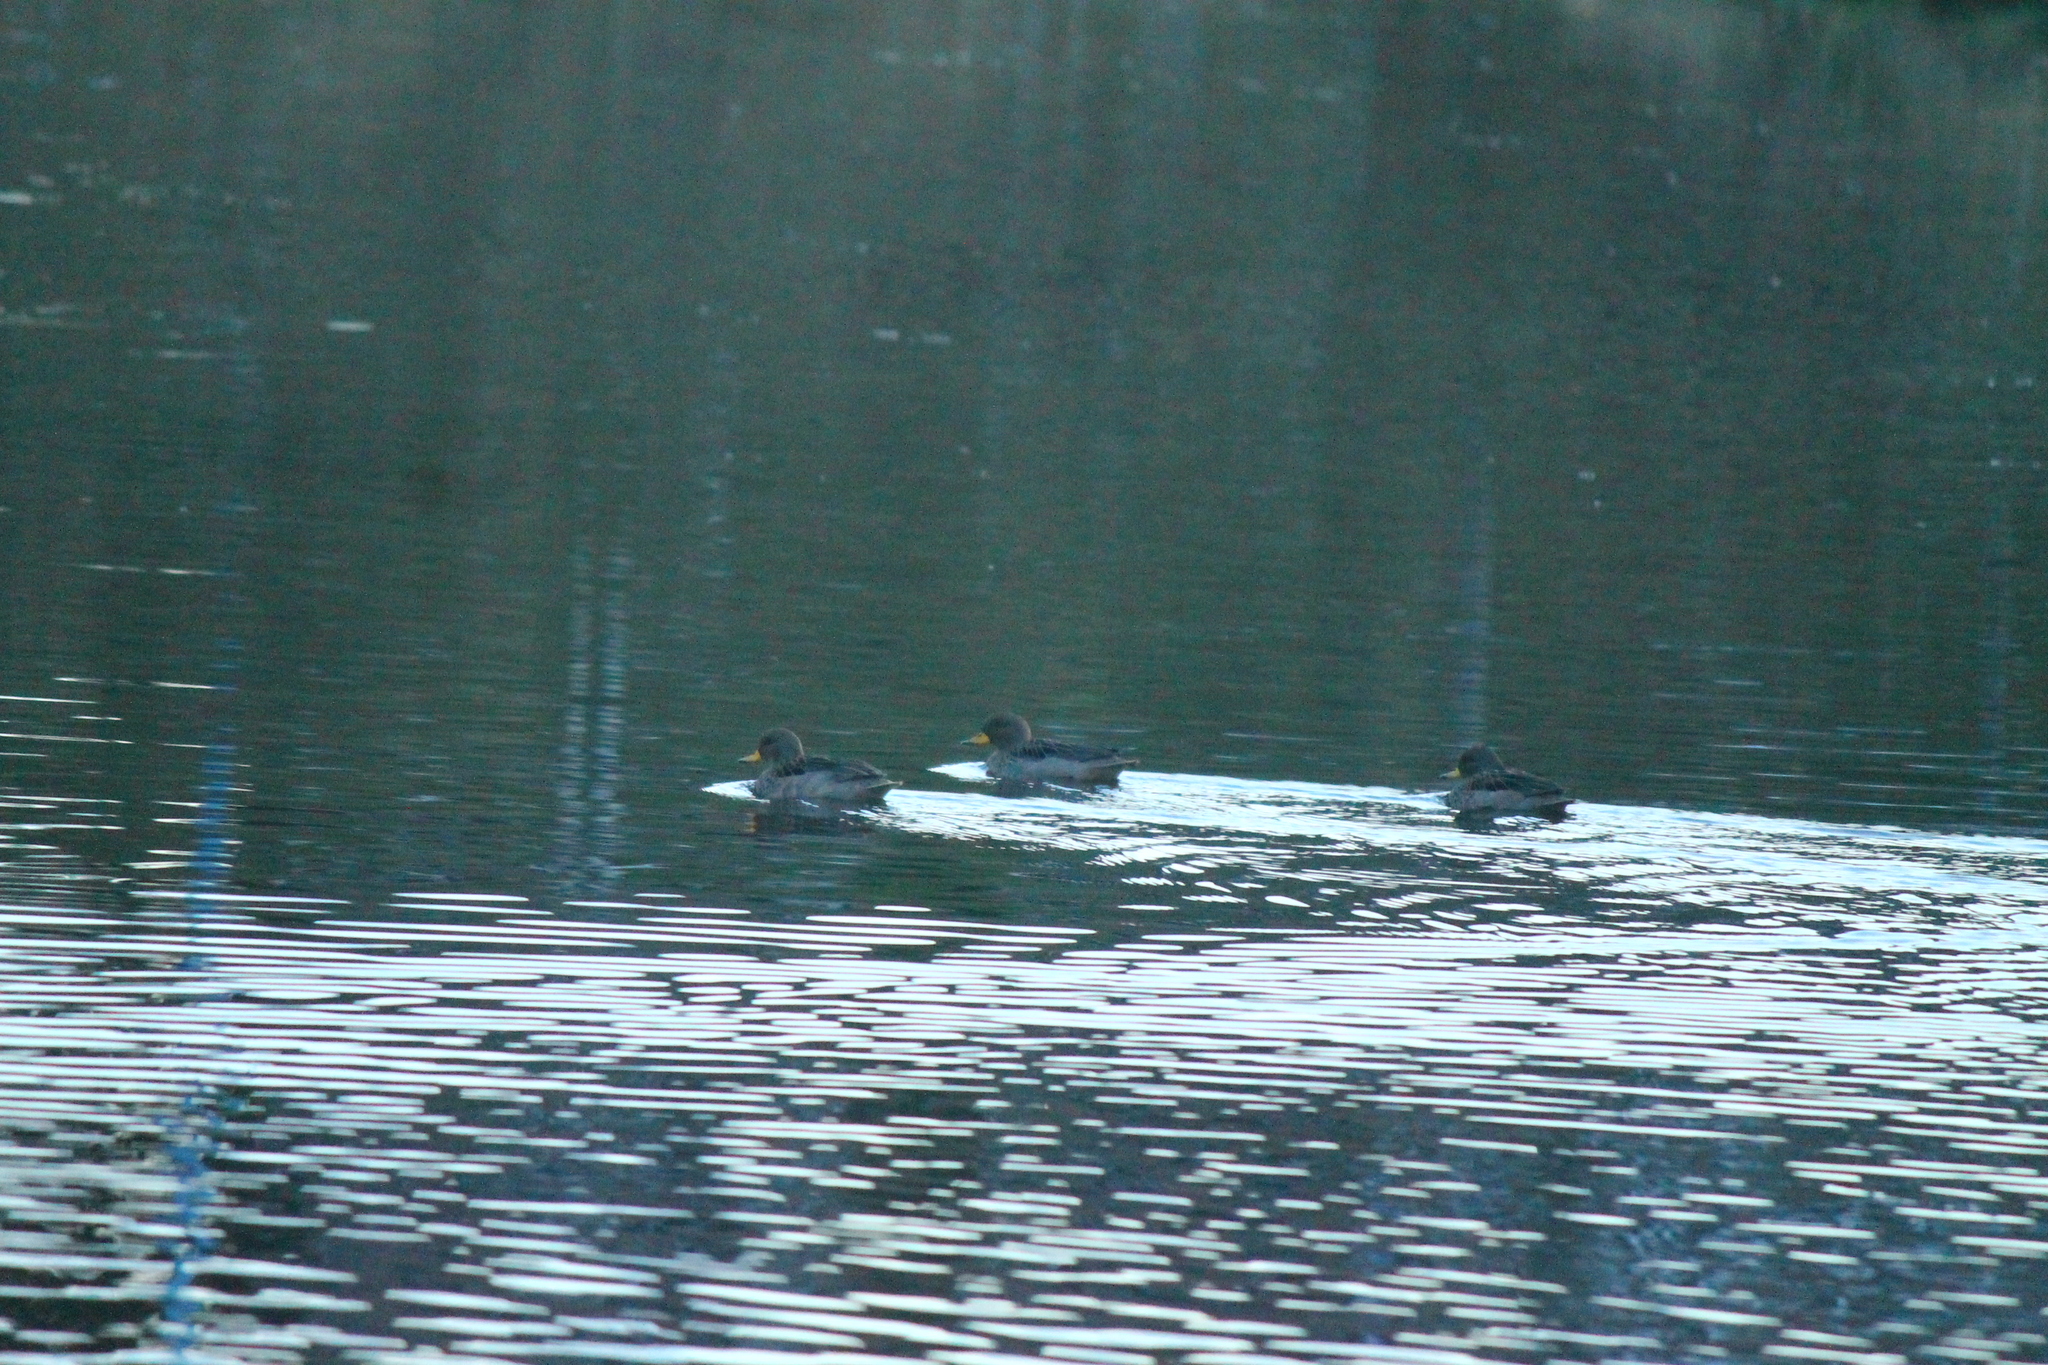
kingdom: Animalia
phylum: Chordata
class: Aves
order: Anseriformes
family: Anatidae
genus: Anas
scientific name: Anas flavirostris
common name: Yellow-billed teal
